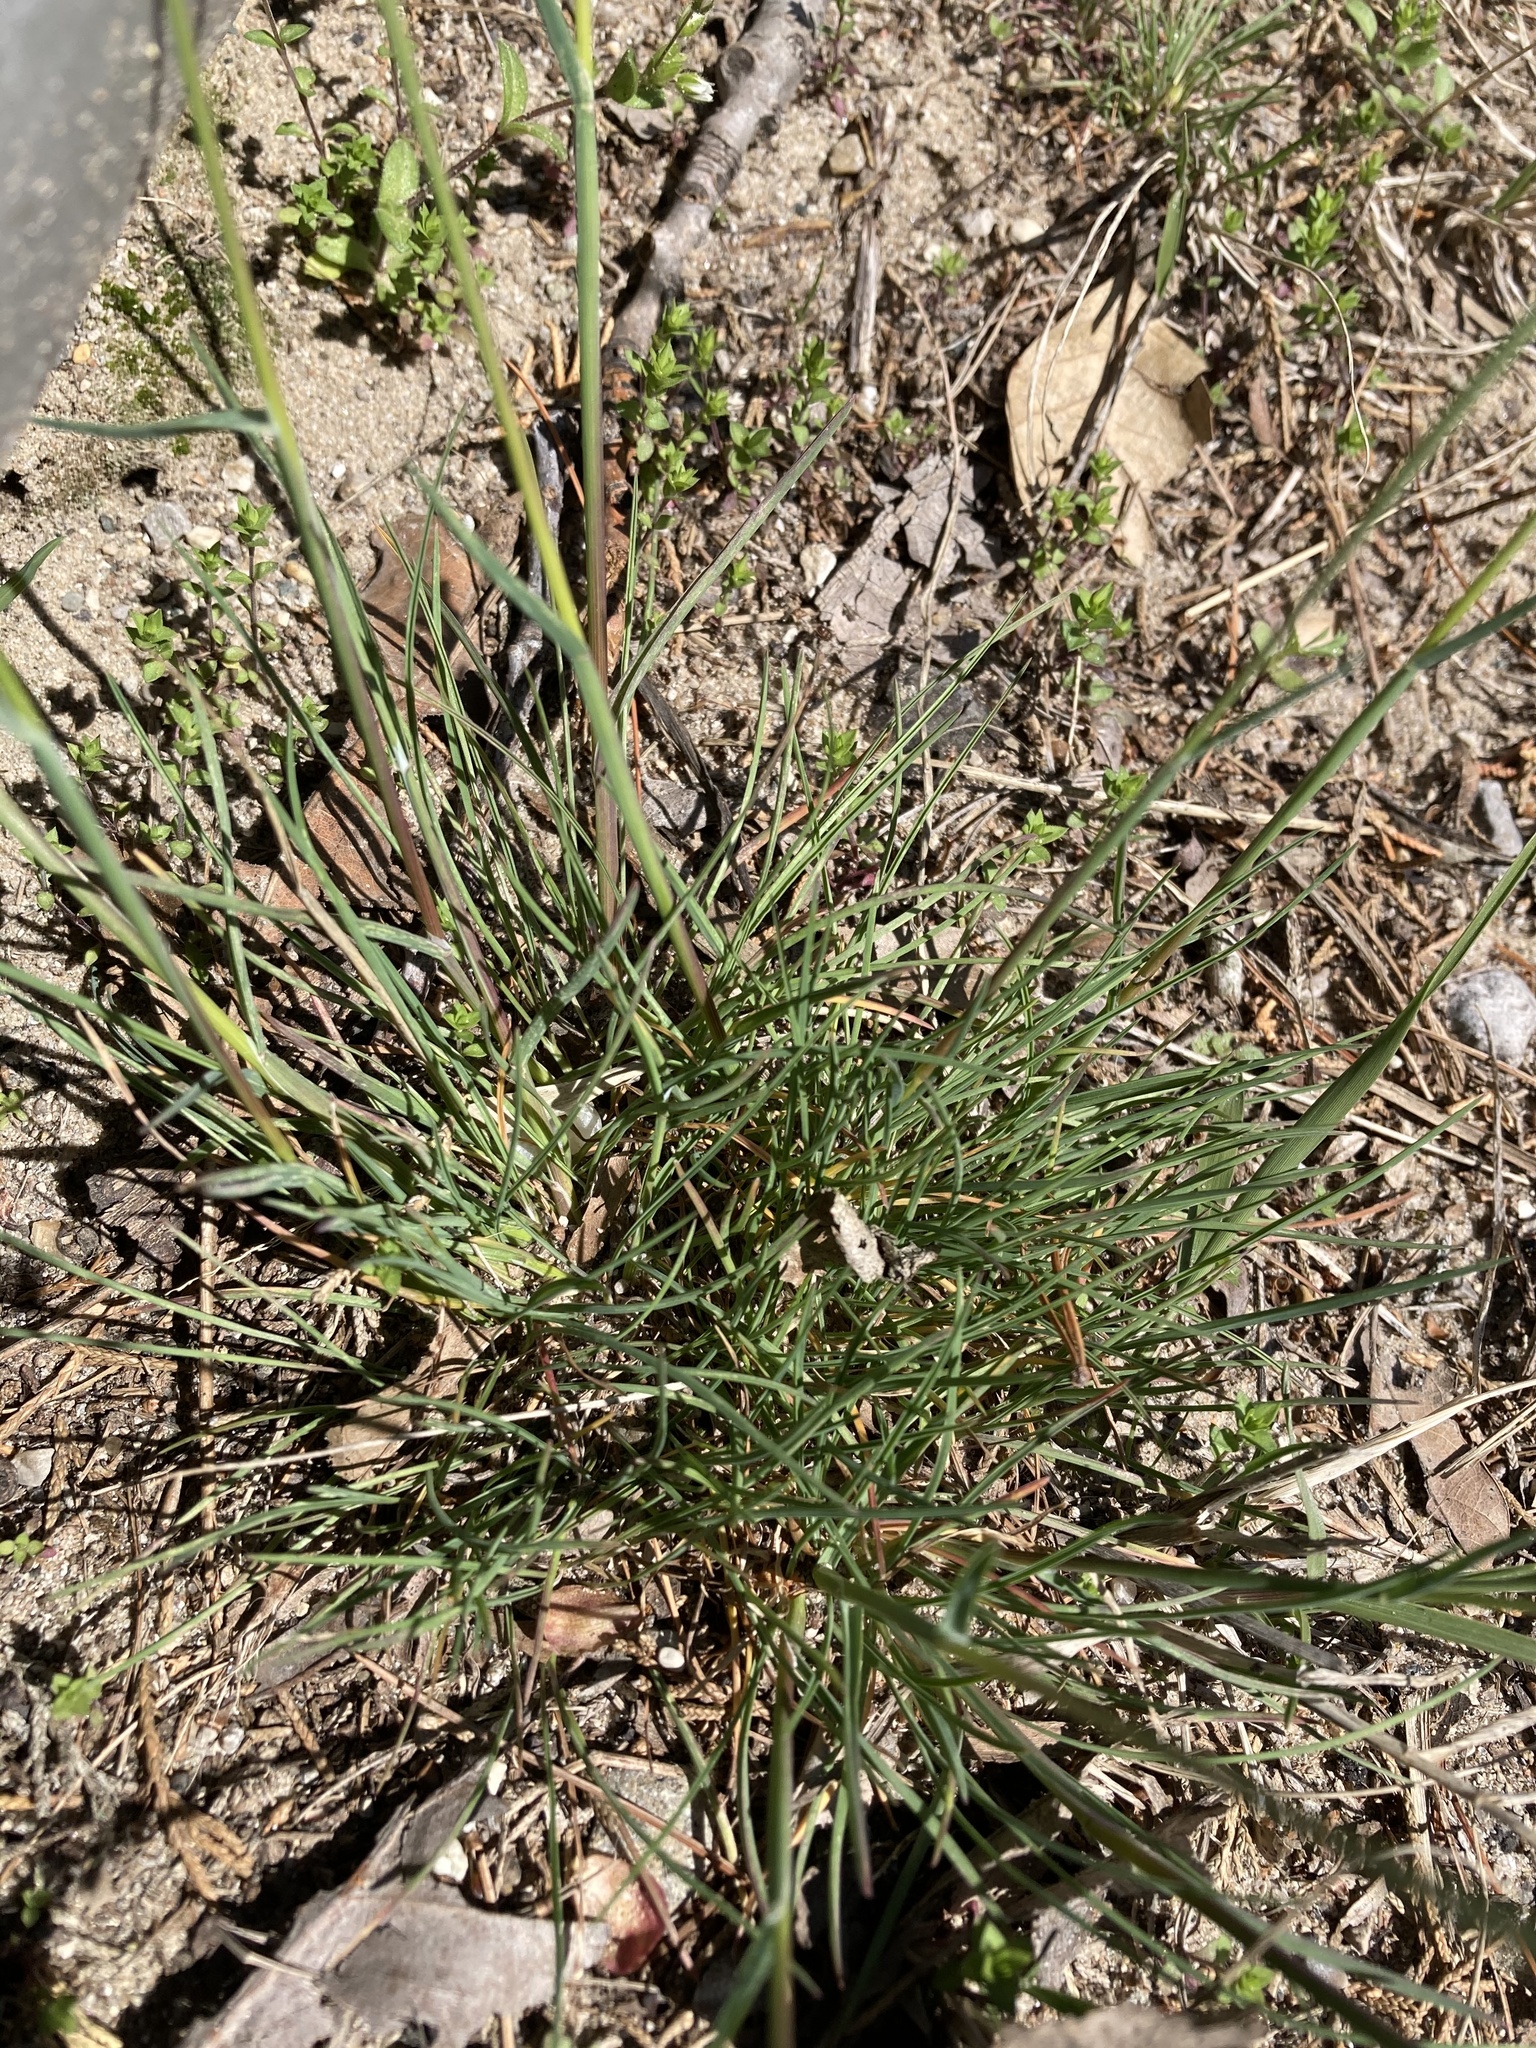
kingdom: Plantae
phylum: Tracheophyta
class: Liliopsida
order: Poales
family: Poaceae
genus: Poa
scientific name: Poa bulbosa
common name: Bulbous bluegrass
